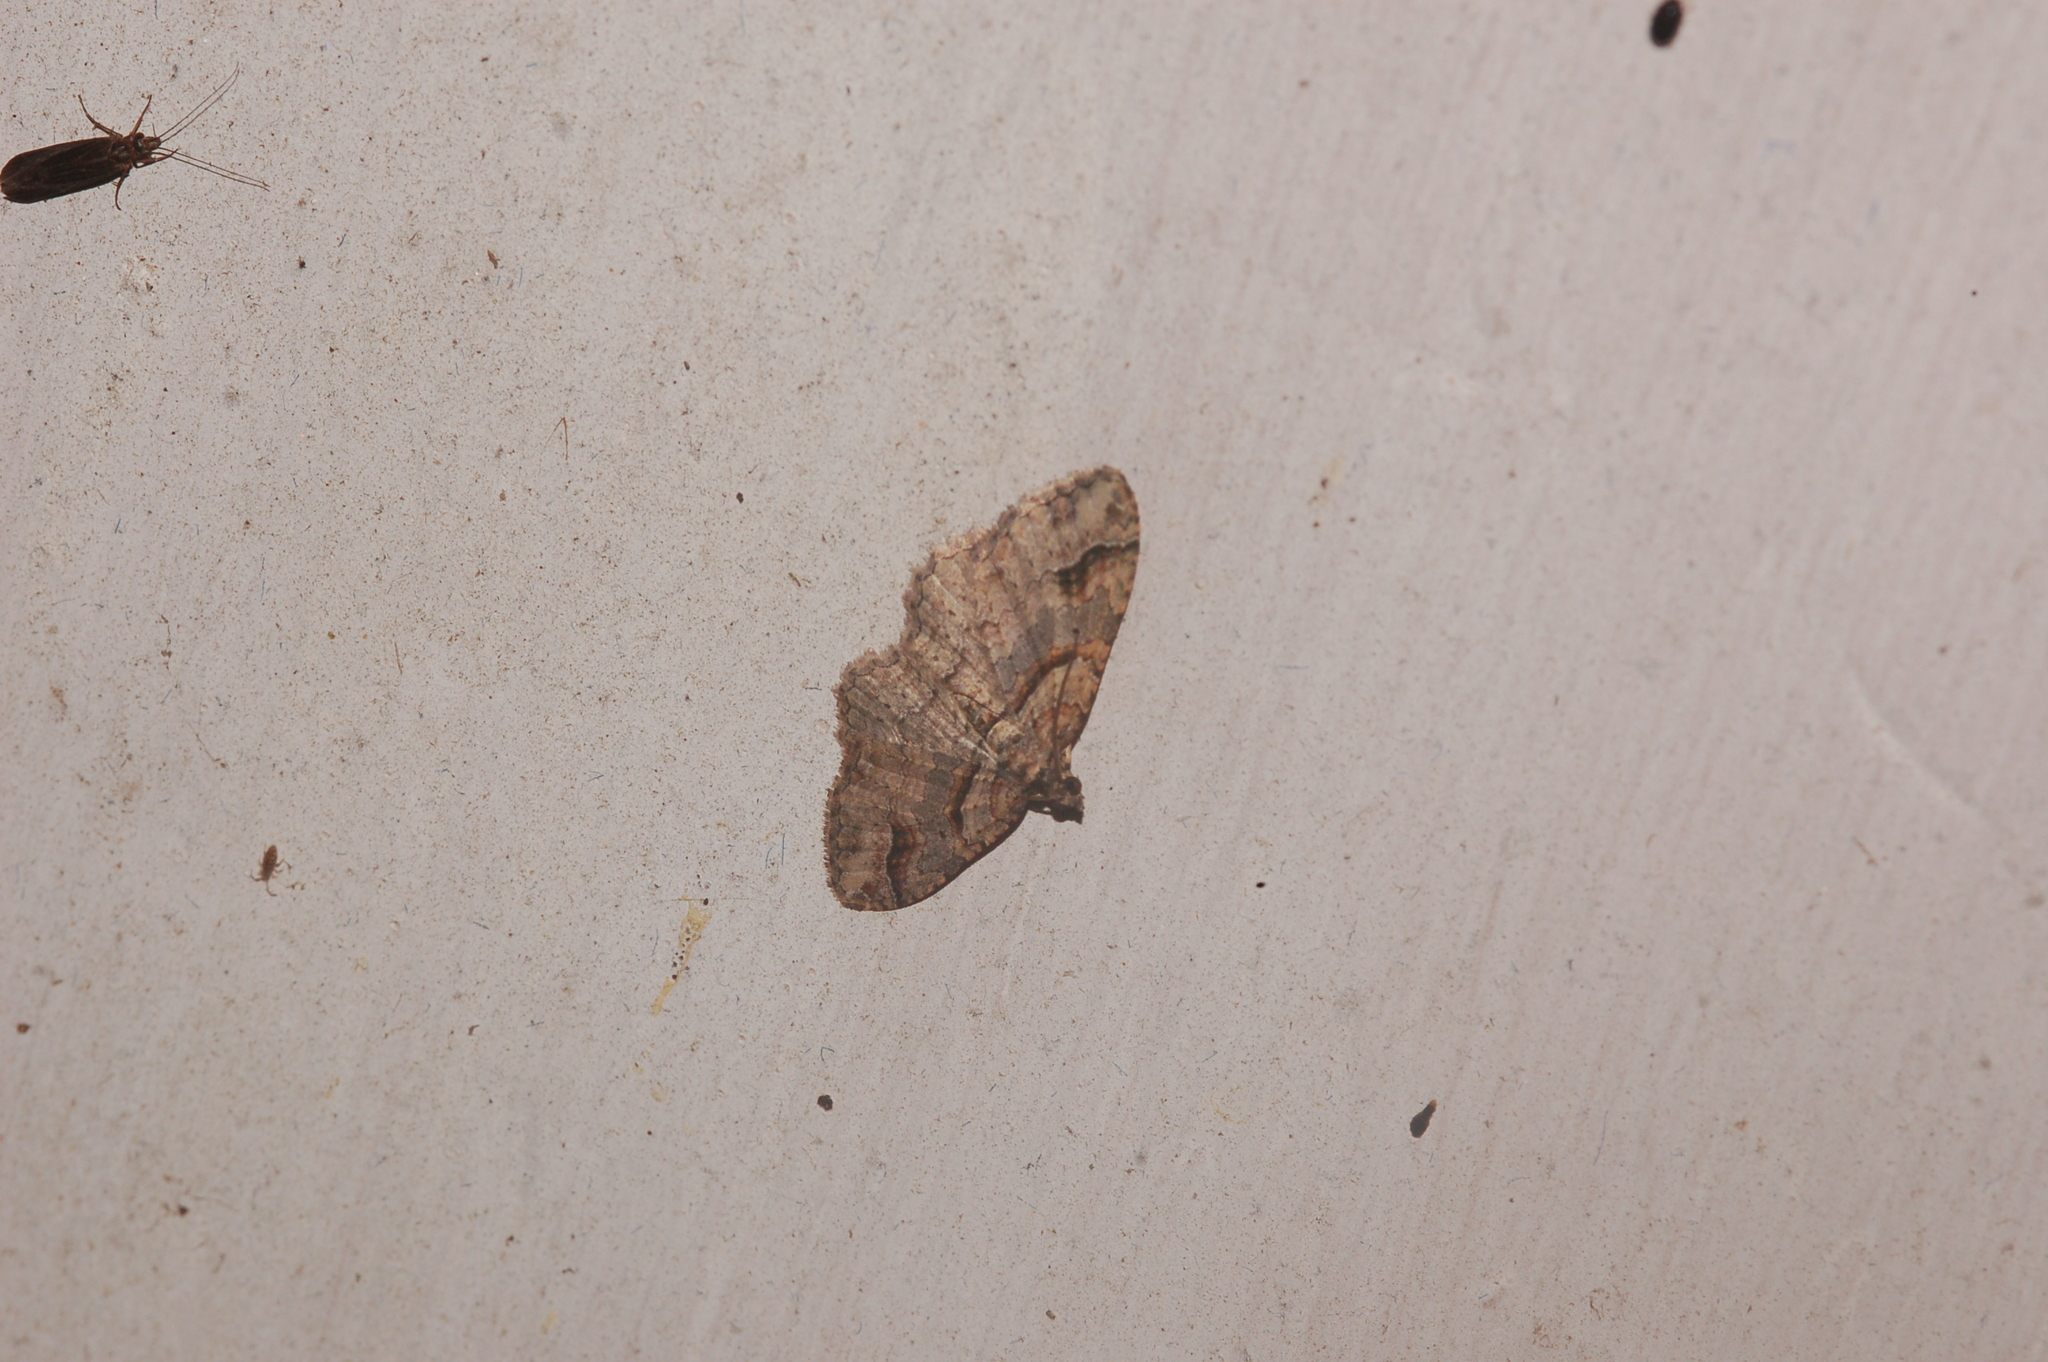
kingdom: Animalia
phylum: Arthropoda
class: Insecta
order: Lepidoptera
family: Geometridae
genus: Costaconvexa
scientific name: Costaconvexa centrostrigaria
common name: Bent-line carpet
